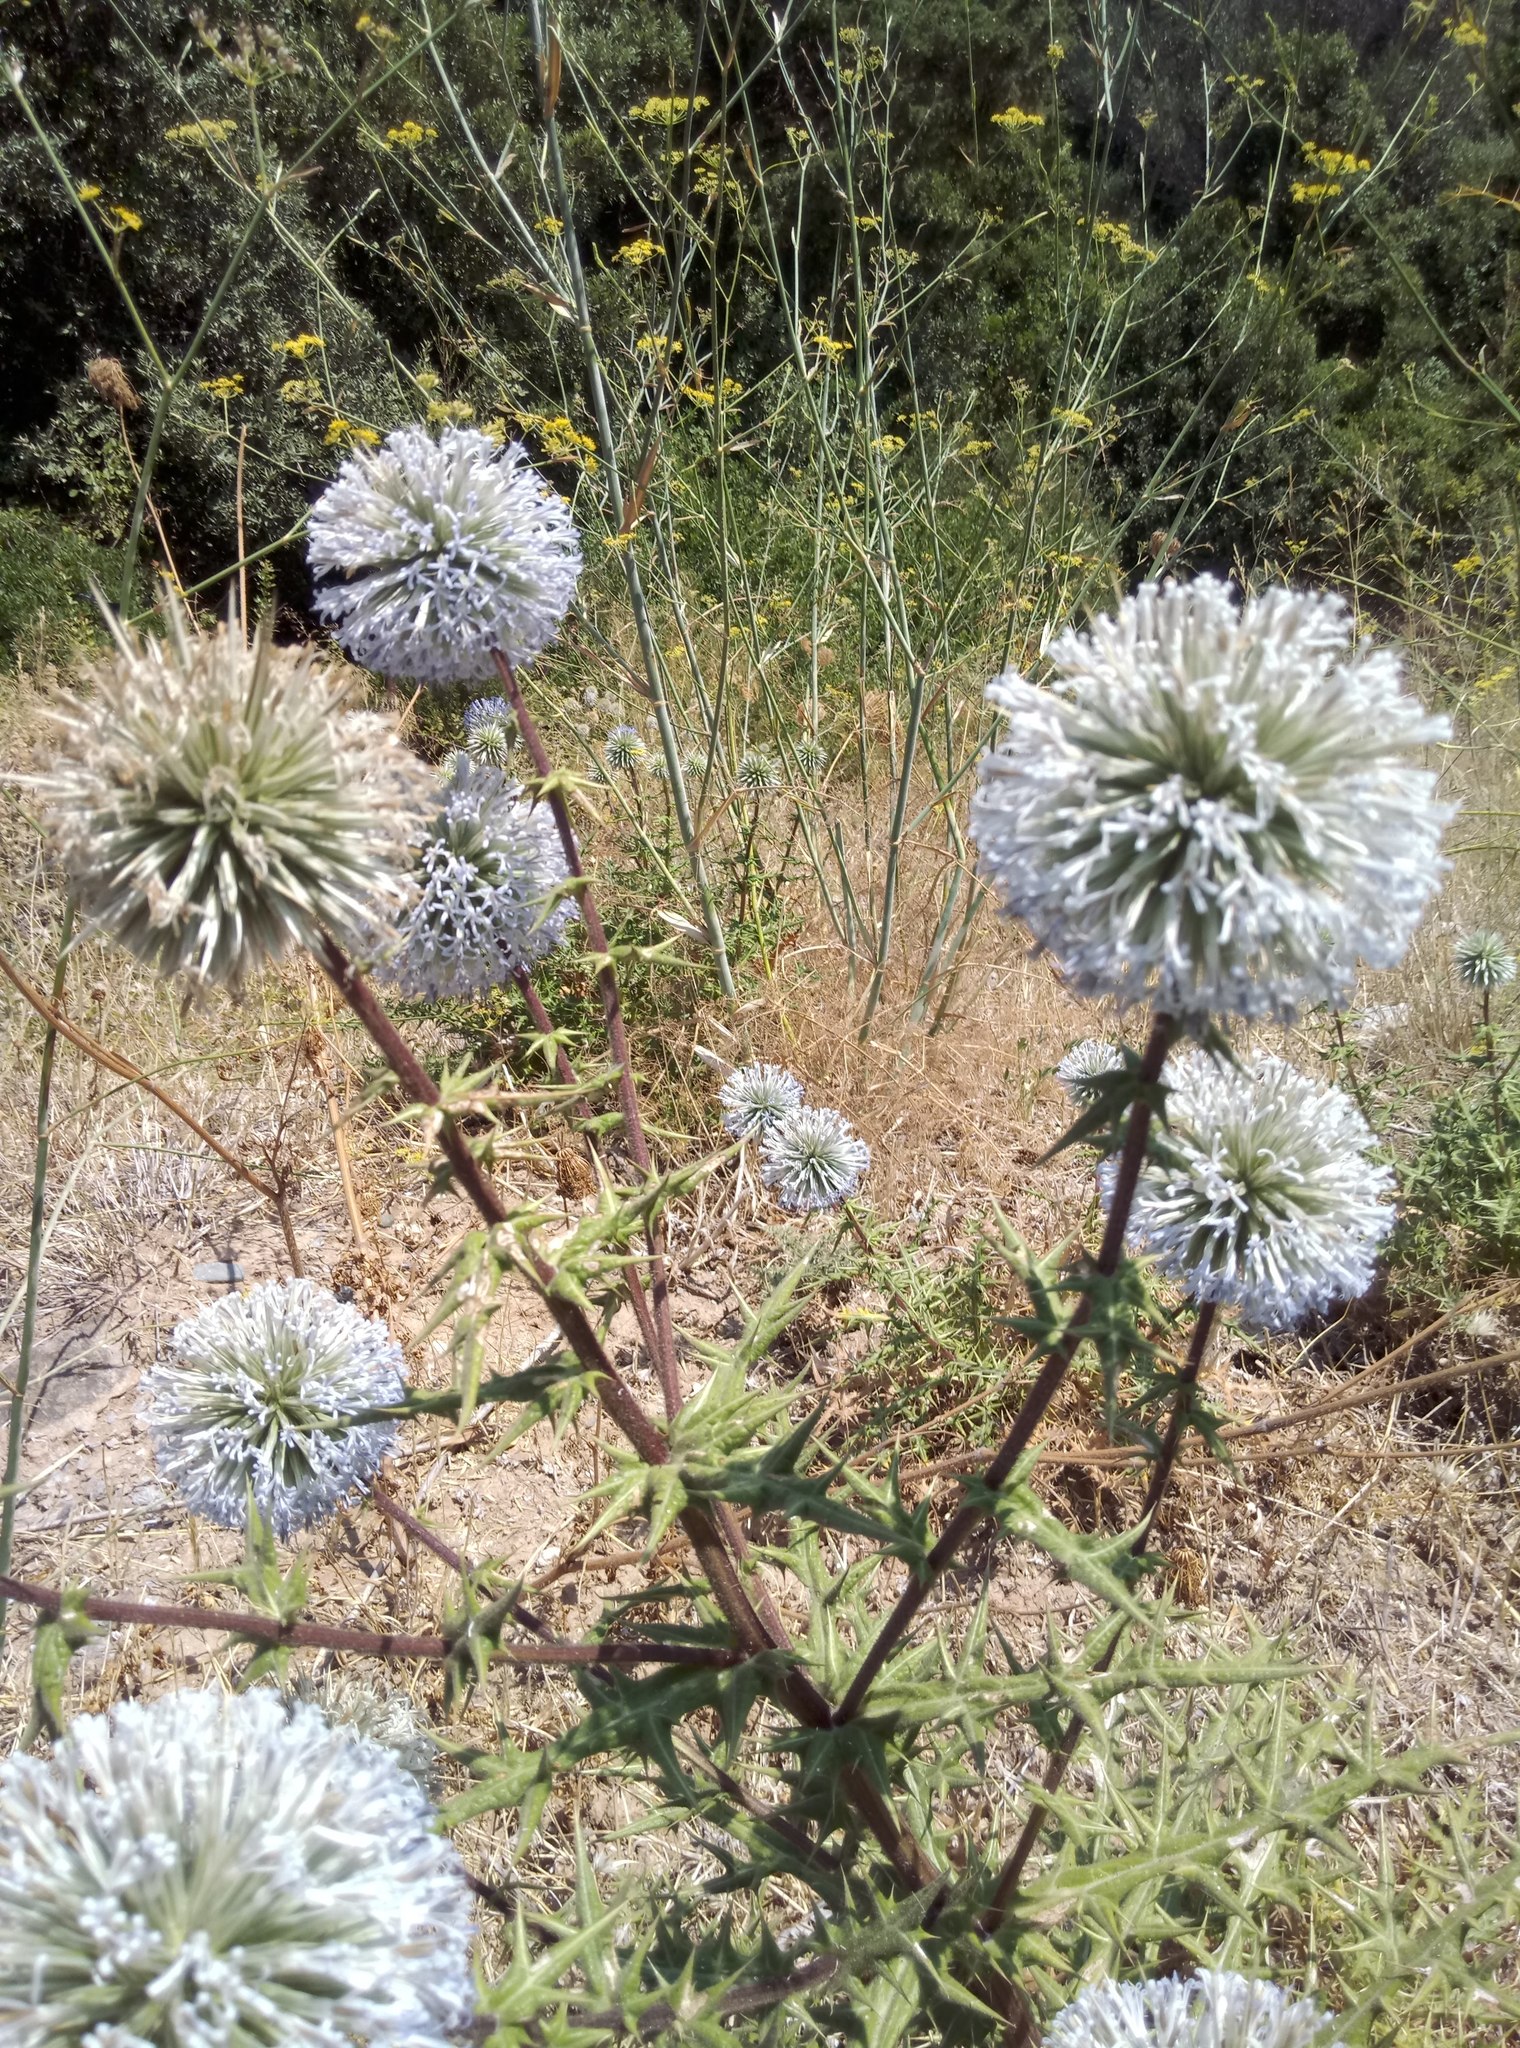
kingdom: Plantae
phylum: Tracheophyta
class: Magnoliopsida
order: Asterales
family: Asteraceae
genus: Echinops
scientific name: Echinops spinosissimus
